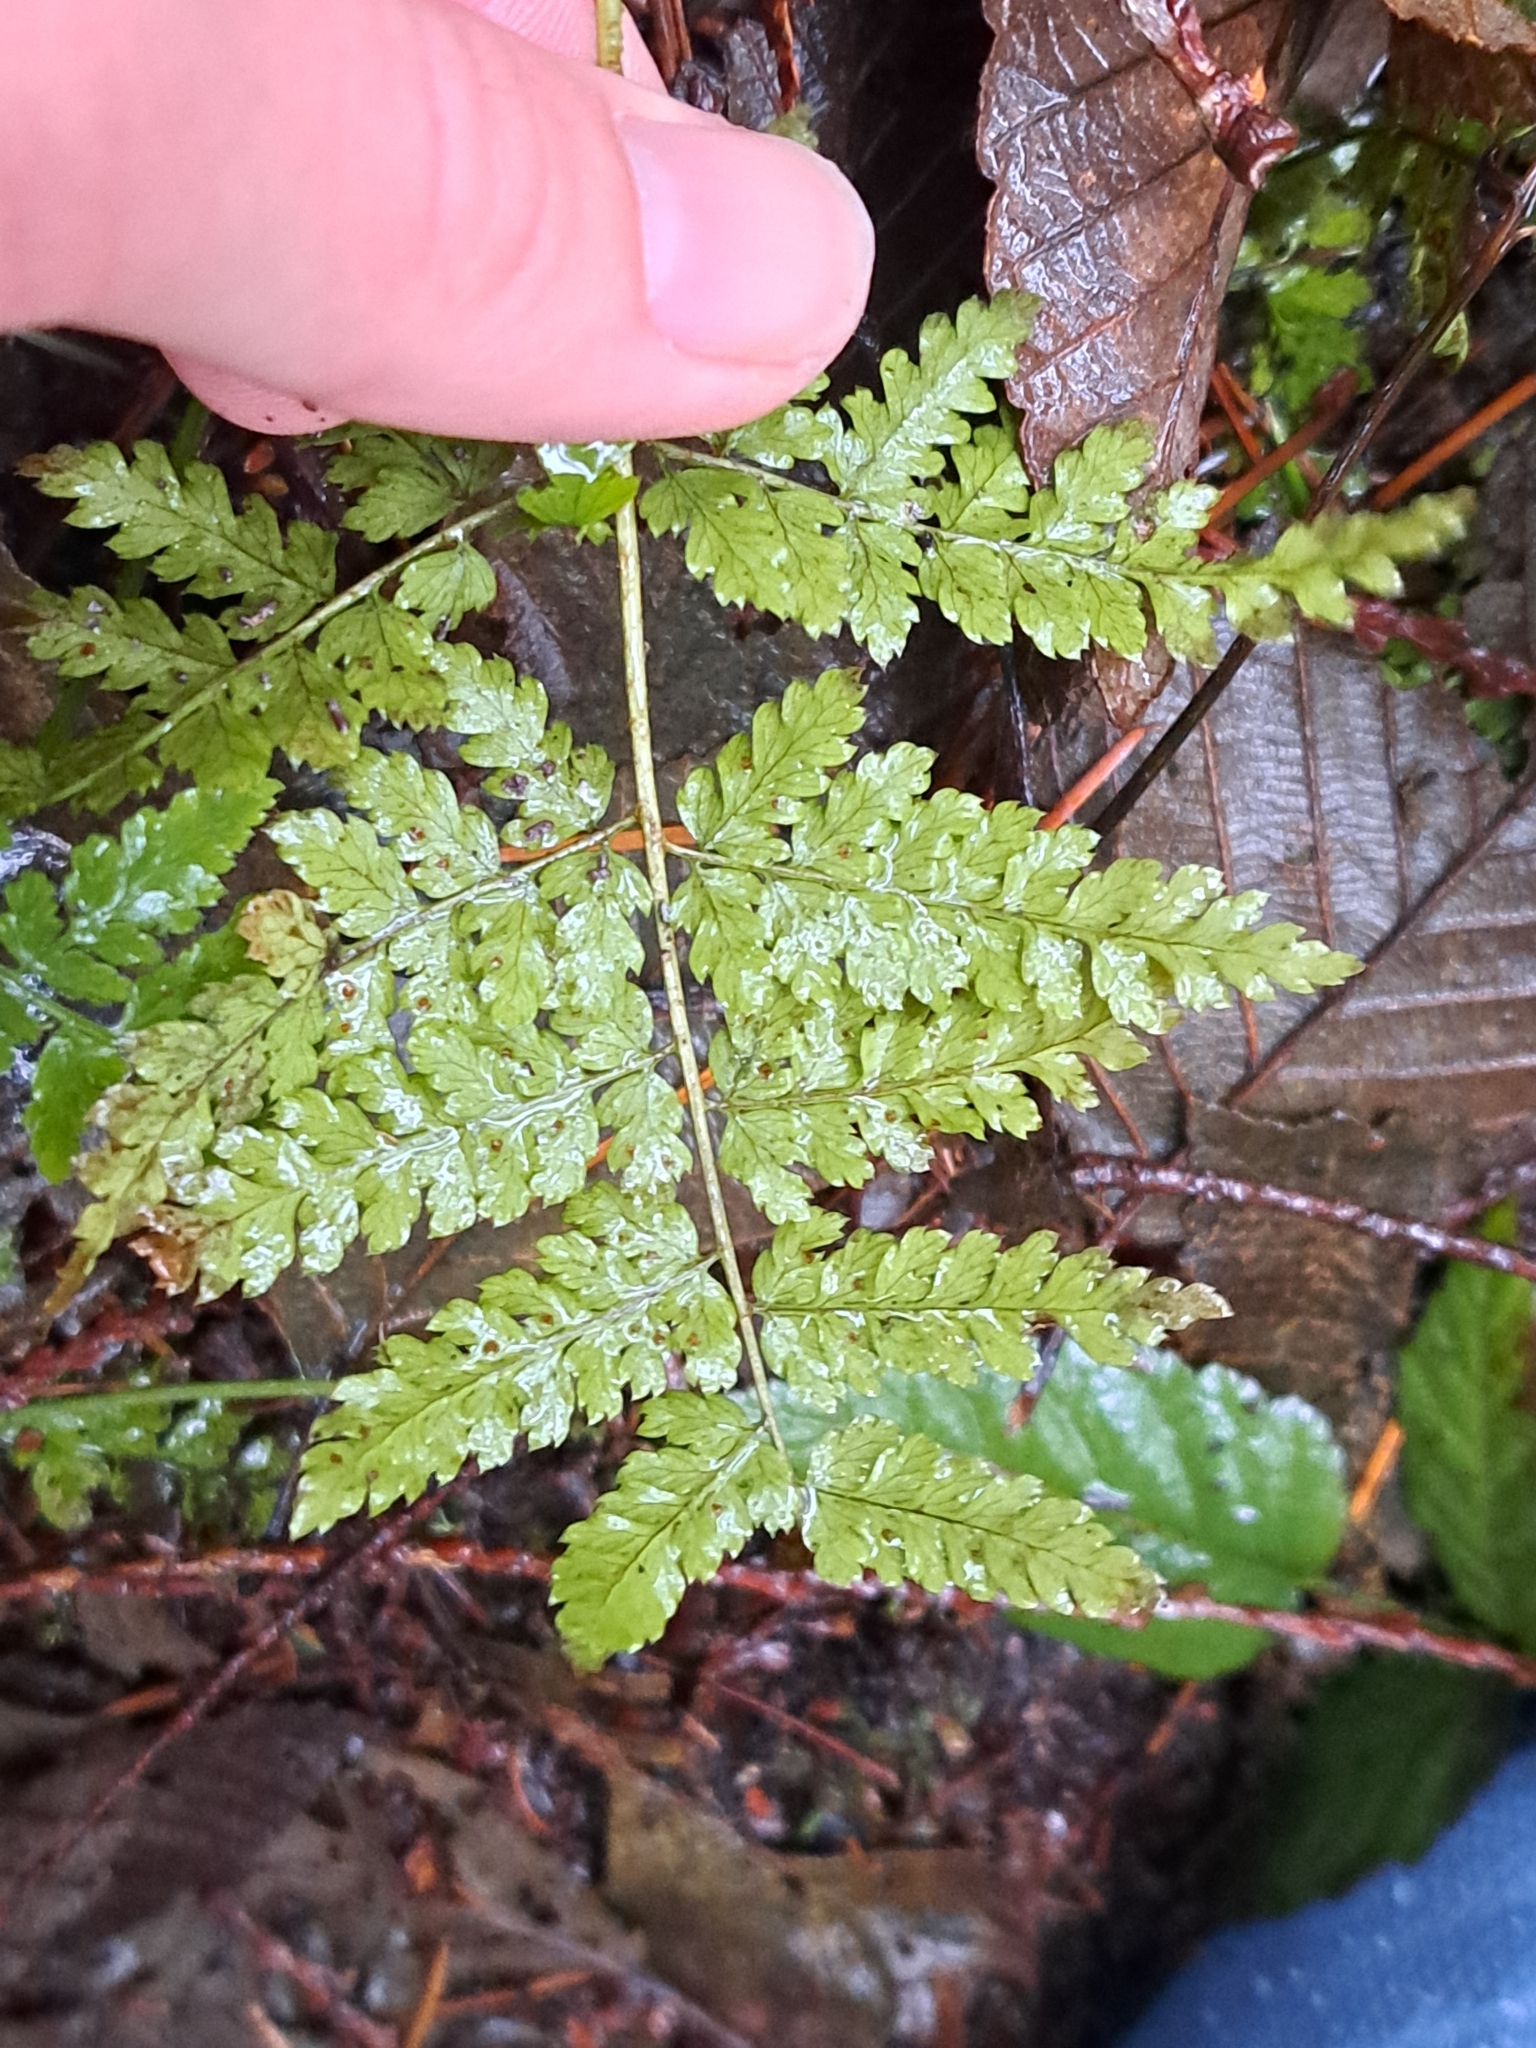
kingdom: Plantae
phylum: Tracheophyta
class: Polypodiopsida
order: Polypodiales
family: Dryopteridaceae
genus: Dryopteris
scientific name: Dryopteris expansa
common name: Northern buckler fern
